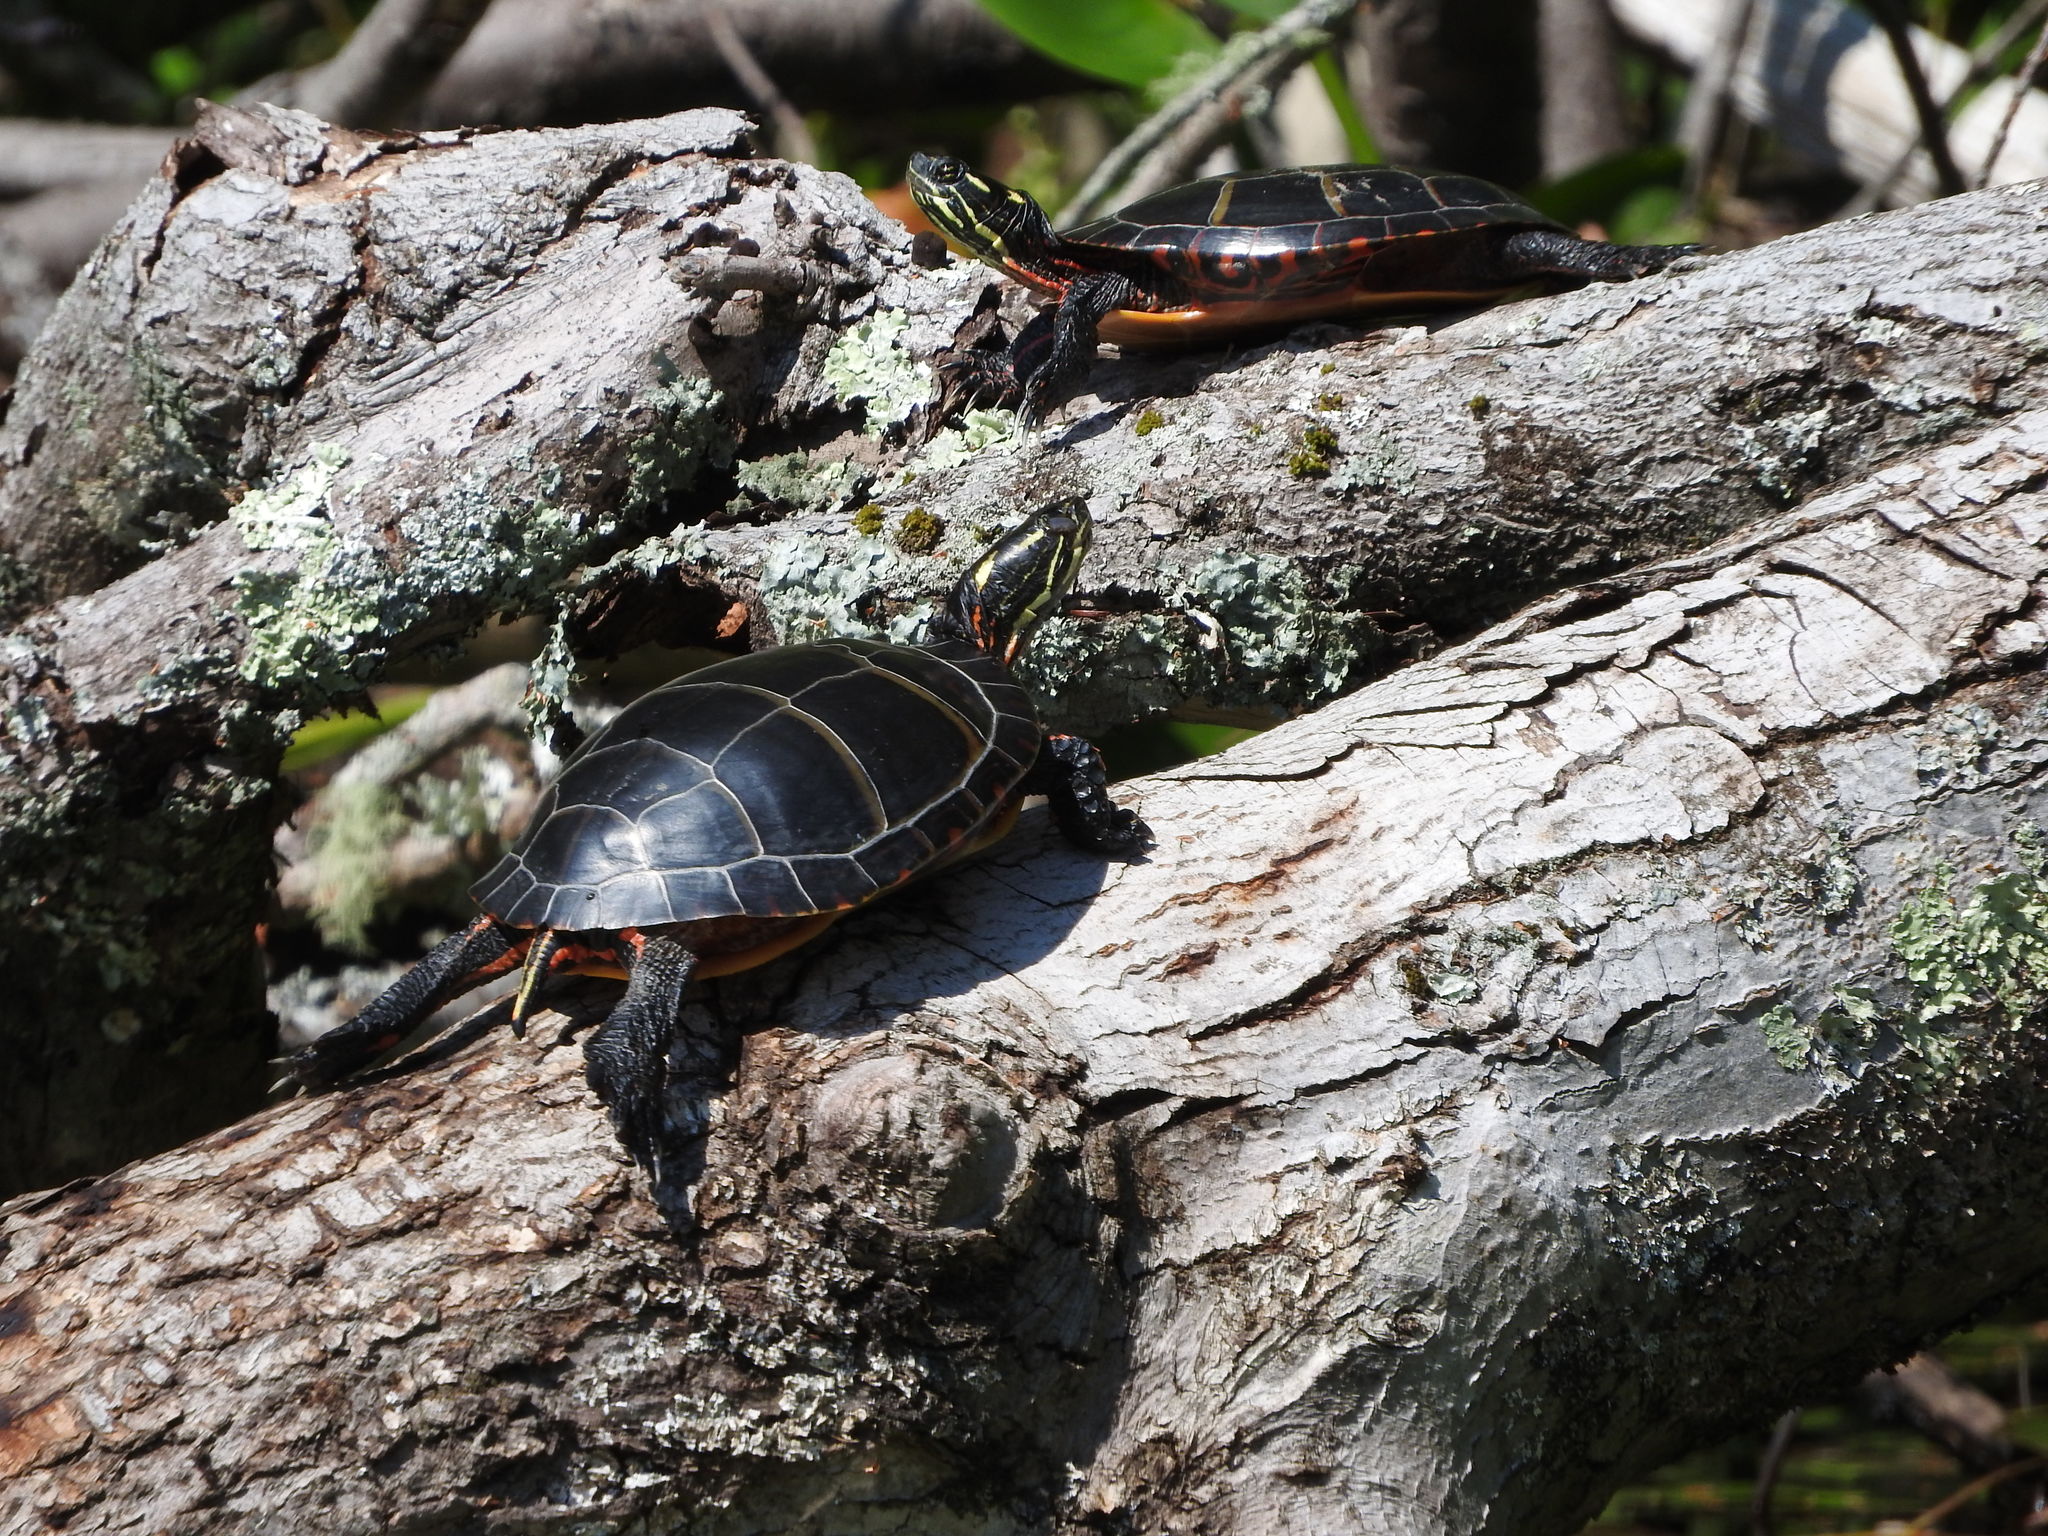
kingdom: Animalia
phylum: Chordata
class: Testudines
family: Emydidae
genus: Chrysemys
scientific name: Chrysemys picta
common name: Painted turtle
